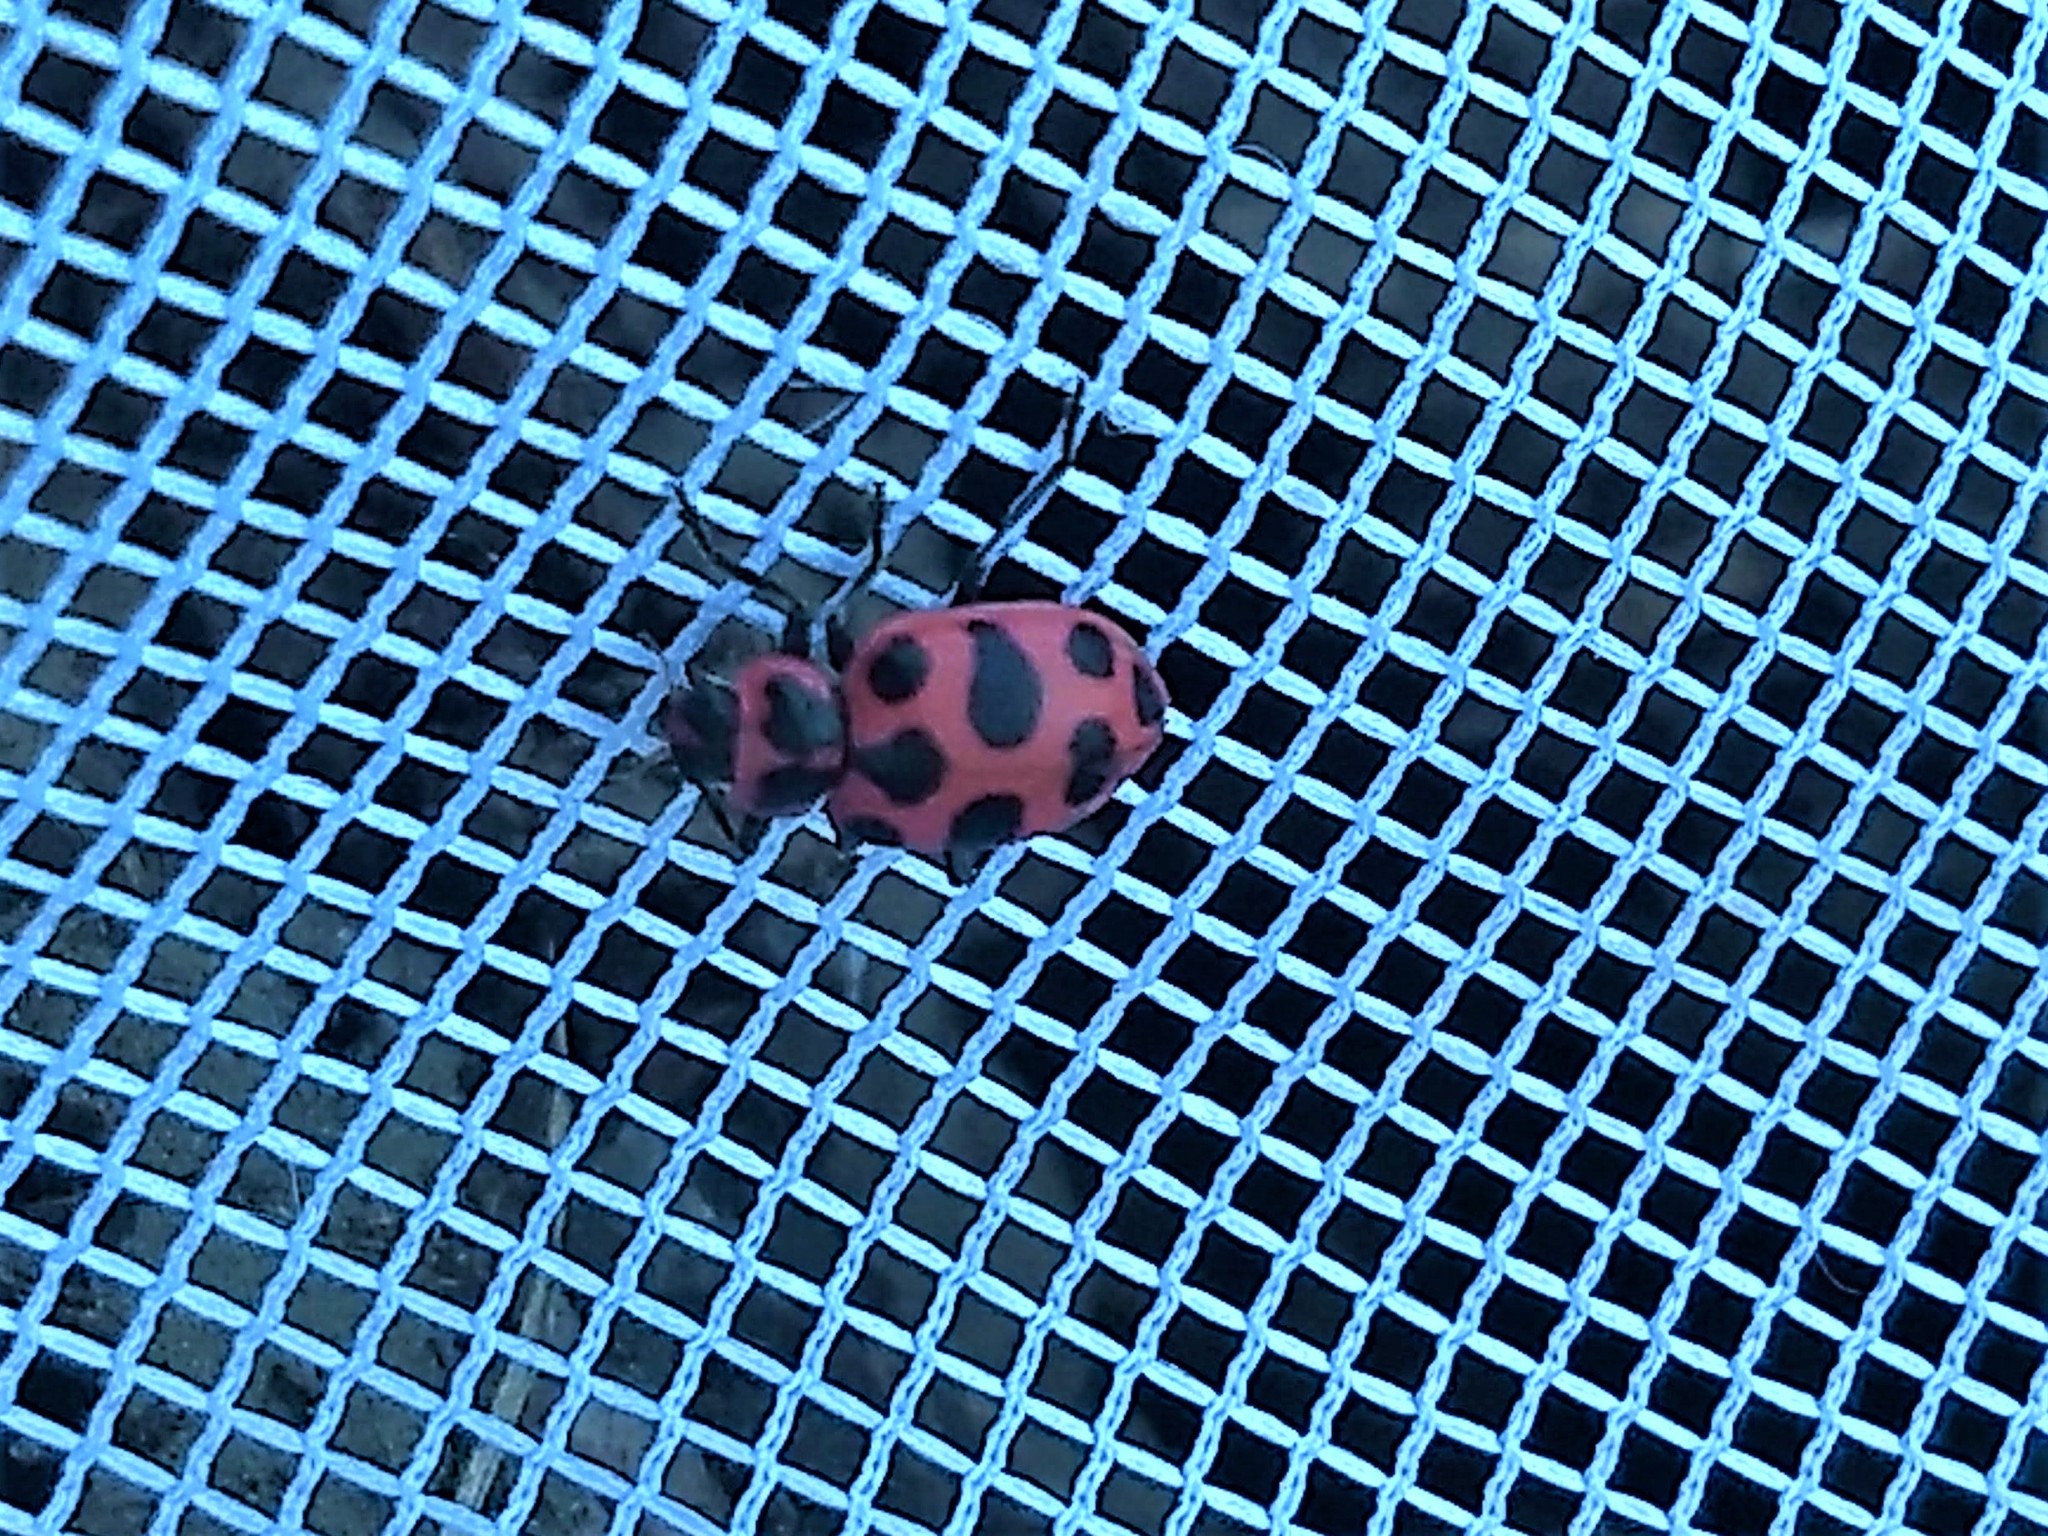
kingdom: Animalia
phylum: Arthropoda
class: Insecta
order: Coleoptera
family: Coccinellidae
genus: Coleomegilla
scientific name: Coleomegilla maculata
